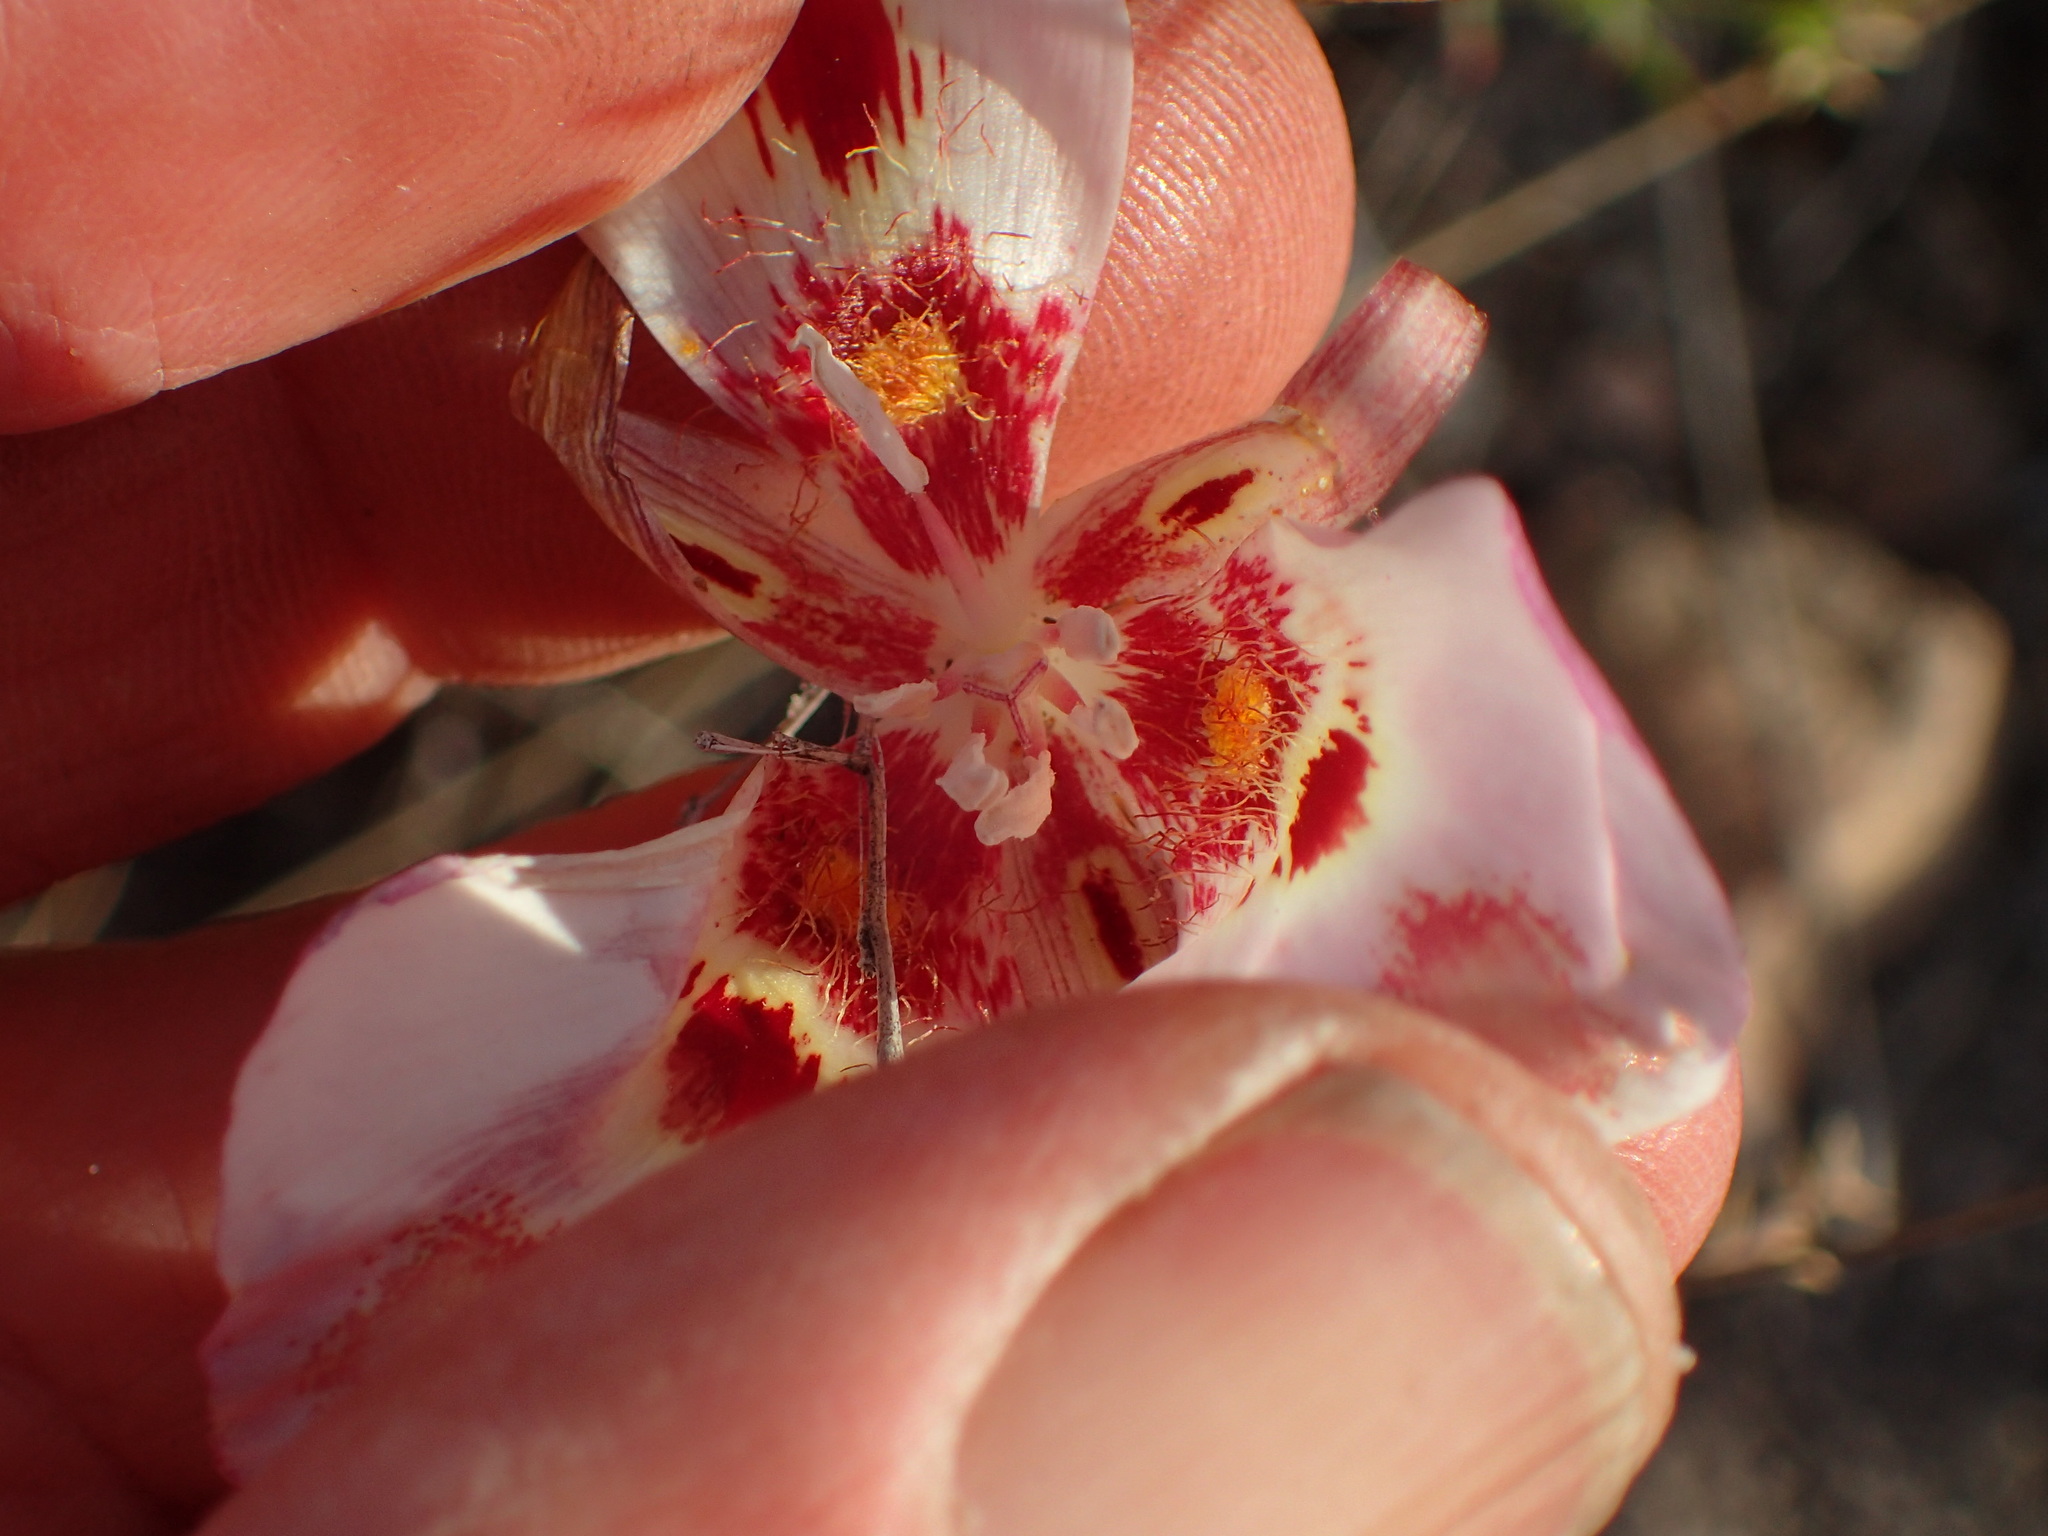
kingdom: Plantae
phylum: Tracheophyta
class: Liliopsida
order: Liliales
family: Liliaceae
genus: Calochortus
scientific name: Calochortus venustus
